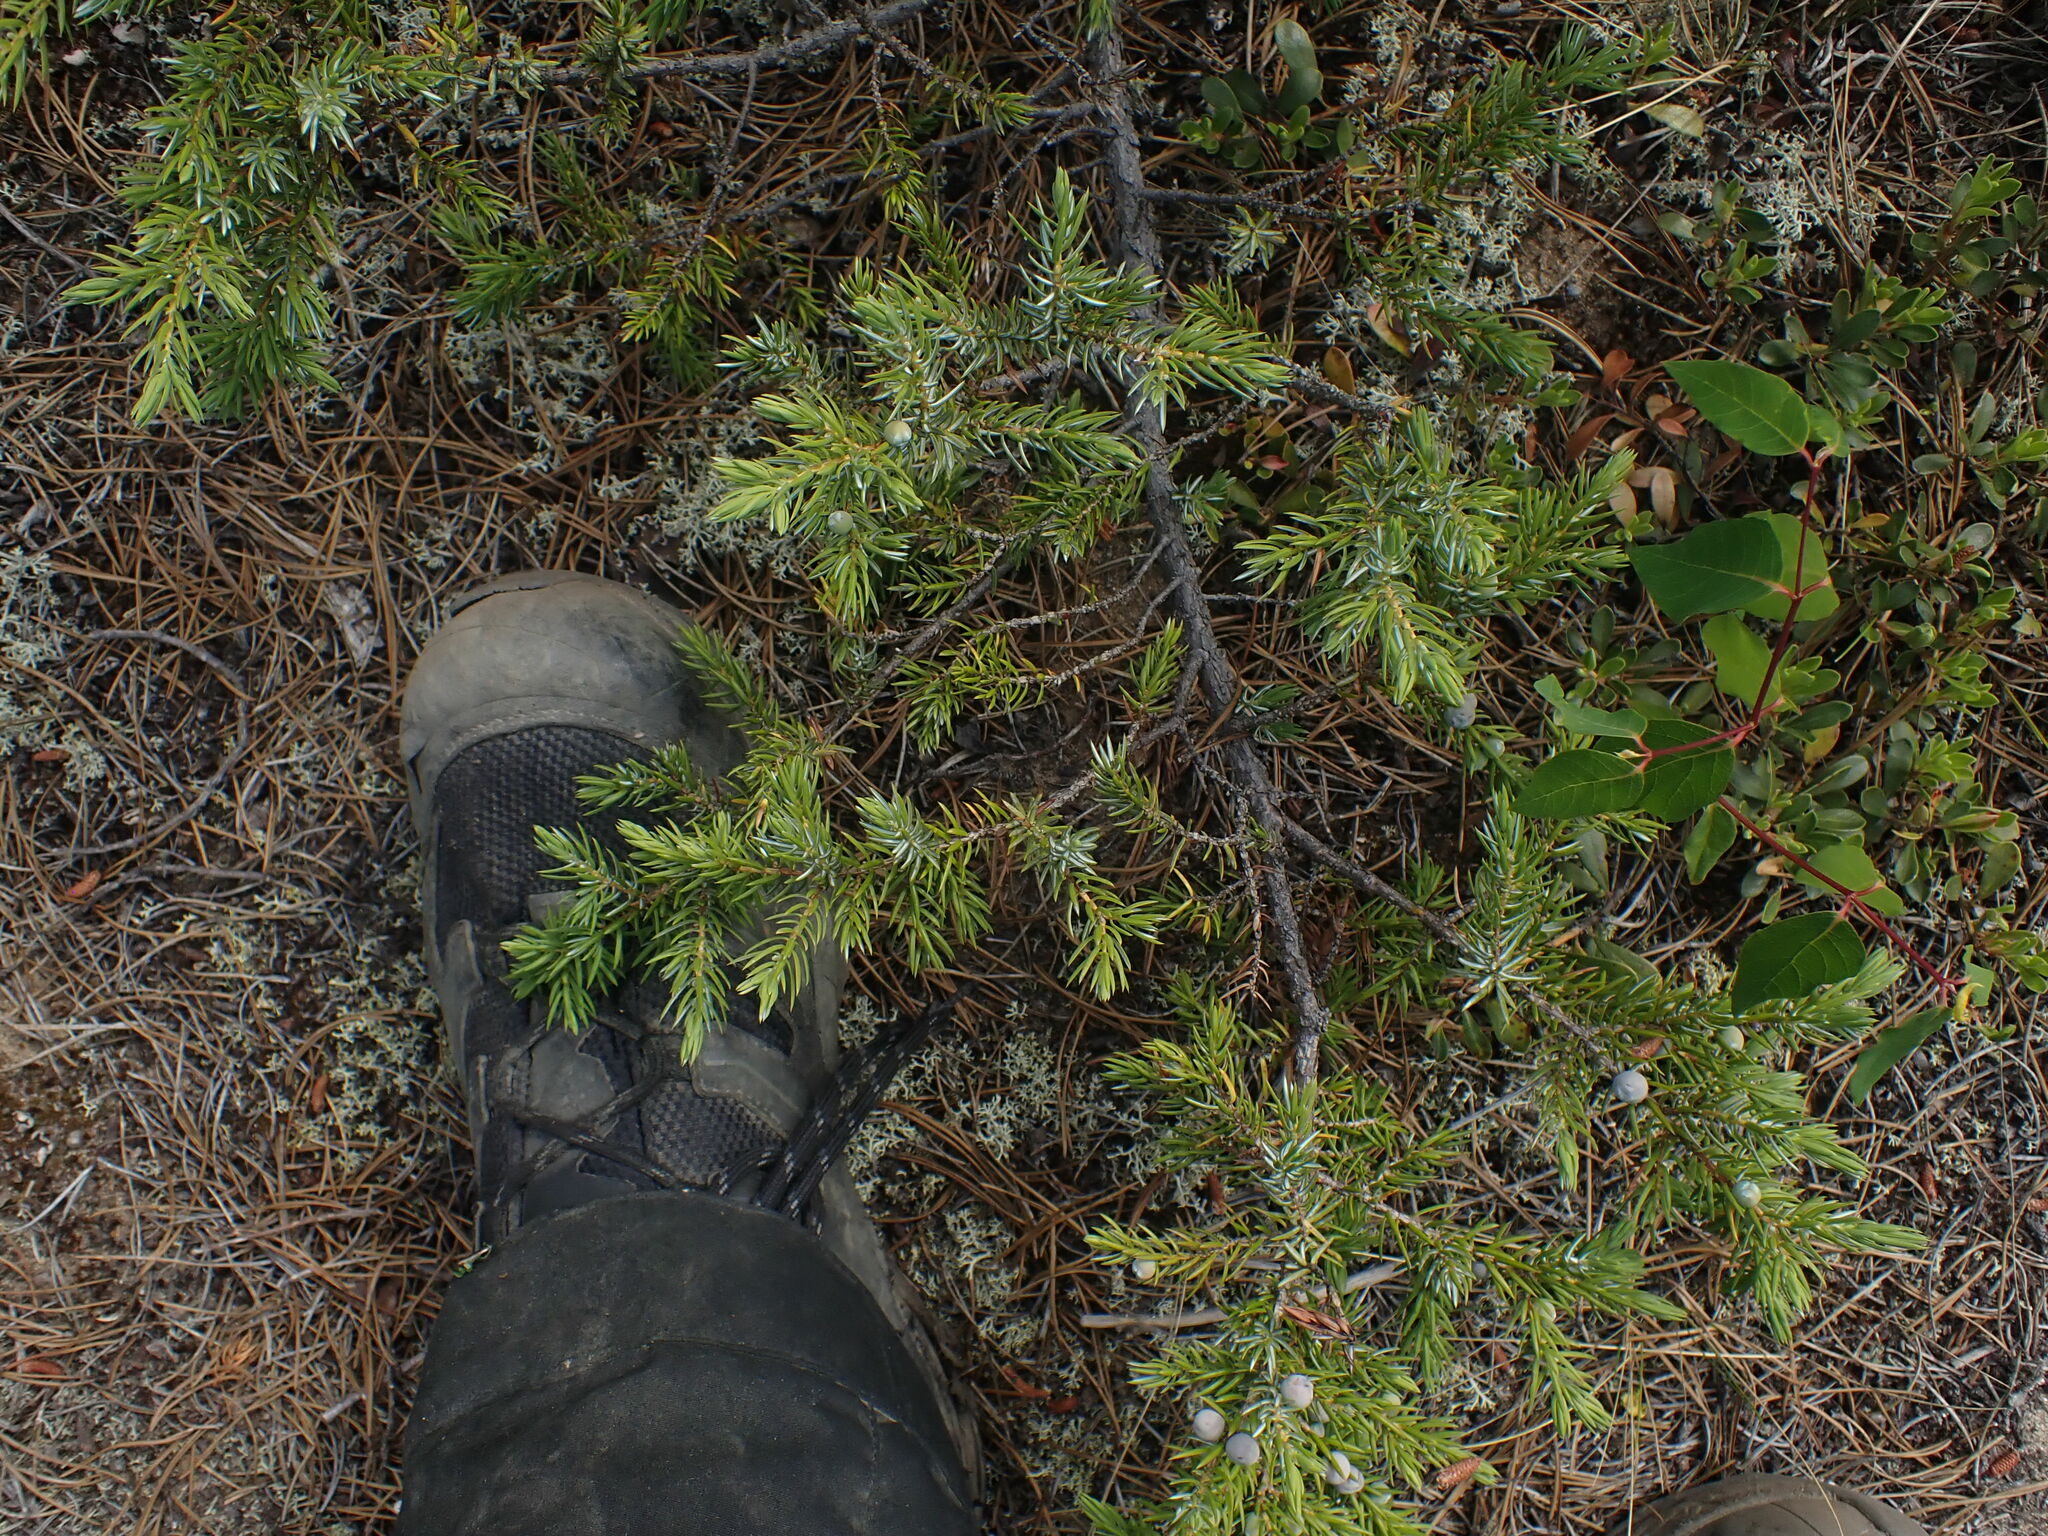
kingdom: Plantae
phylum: Tracheophyta
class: Pinopsida
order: Pinales
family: Cupressaceae
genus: Juniperus
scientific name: Juniperus communis
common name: Common juniper
